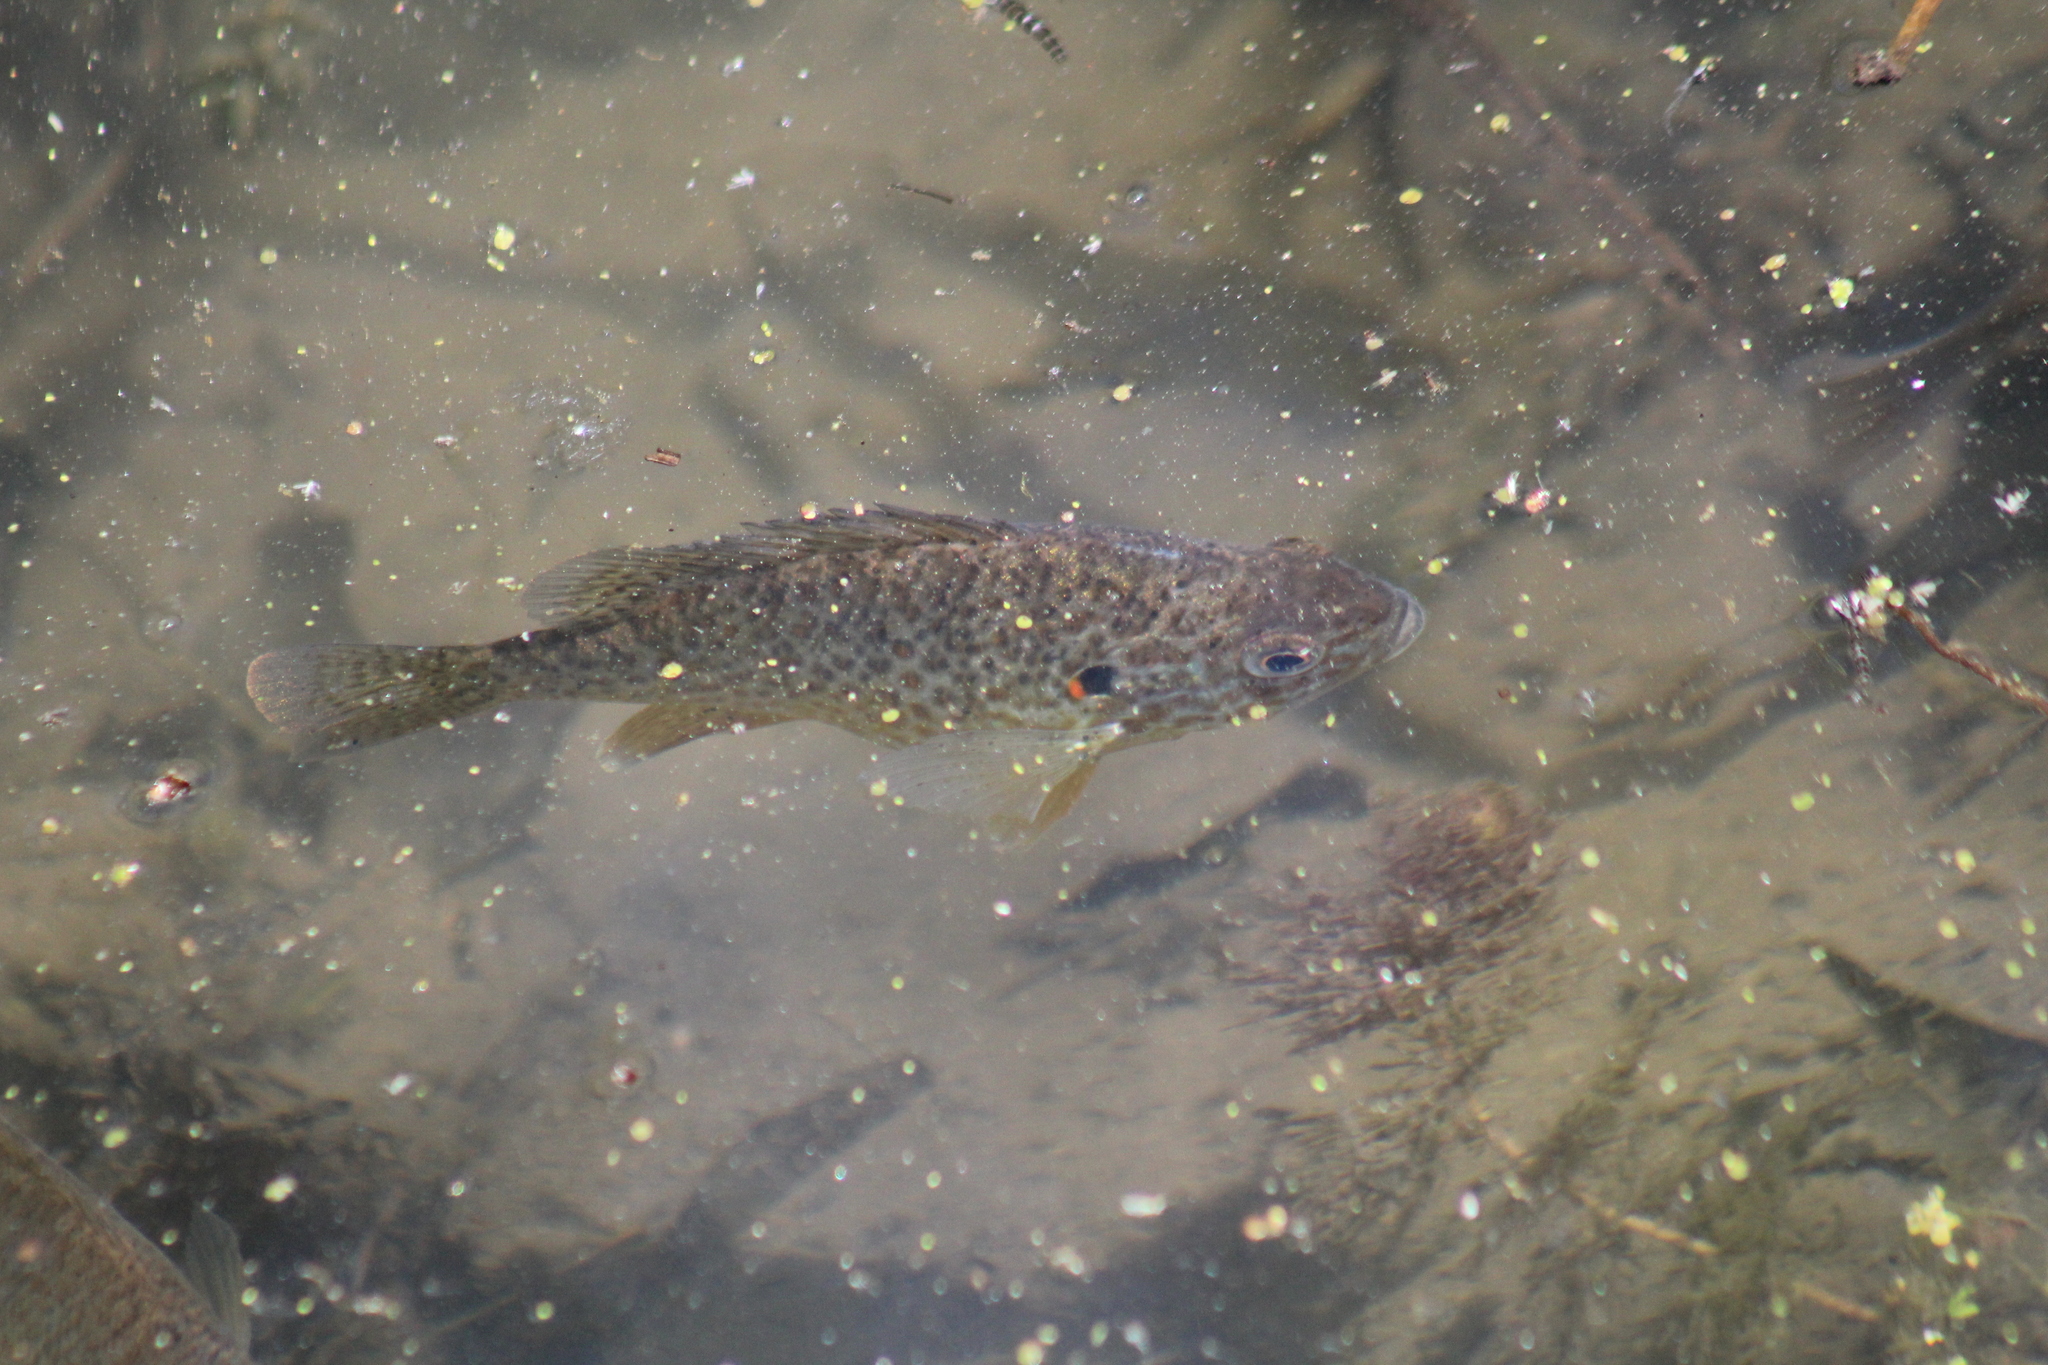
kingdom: Animalia
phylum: Chordata
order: Perciformes
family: Centrarchidae
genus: Lepomis
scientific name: Lepomis gibbosus
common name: Pumpkinseed
